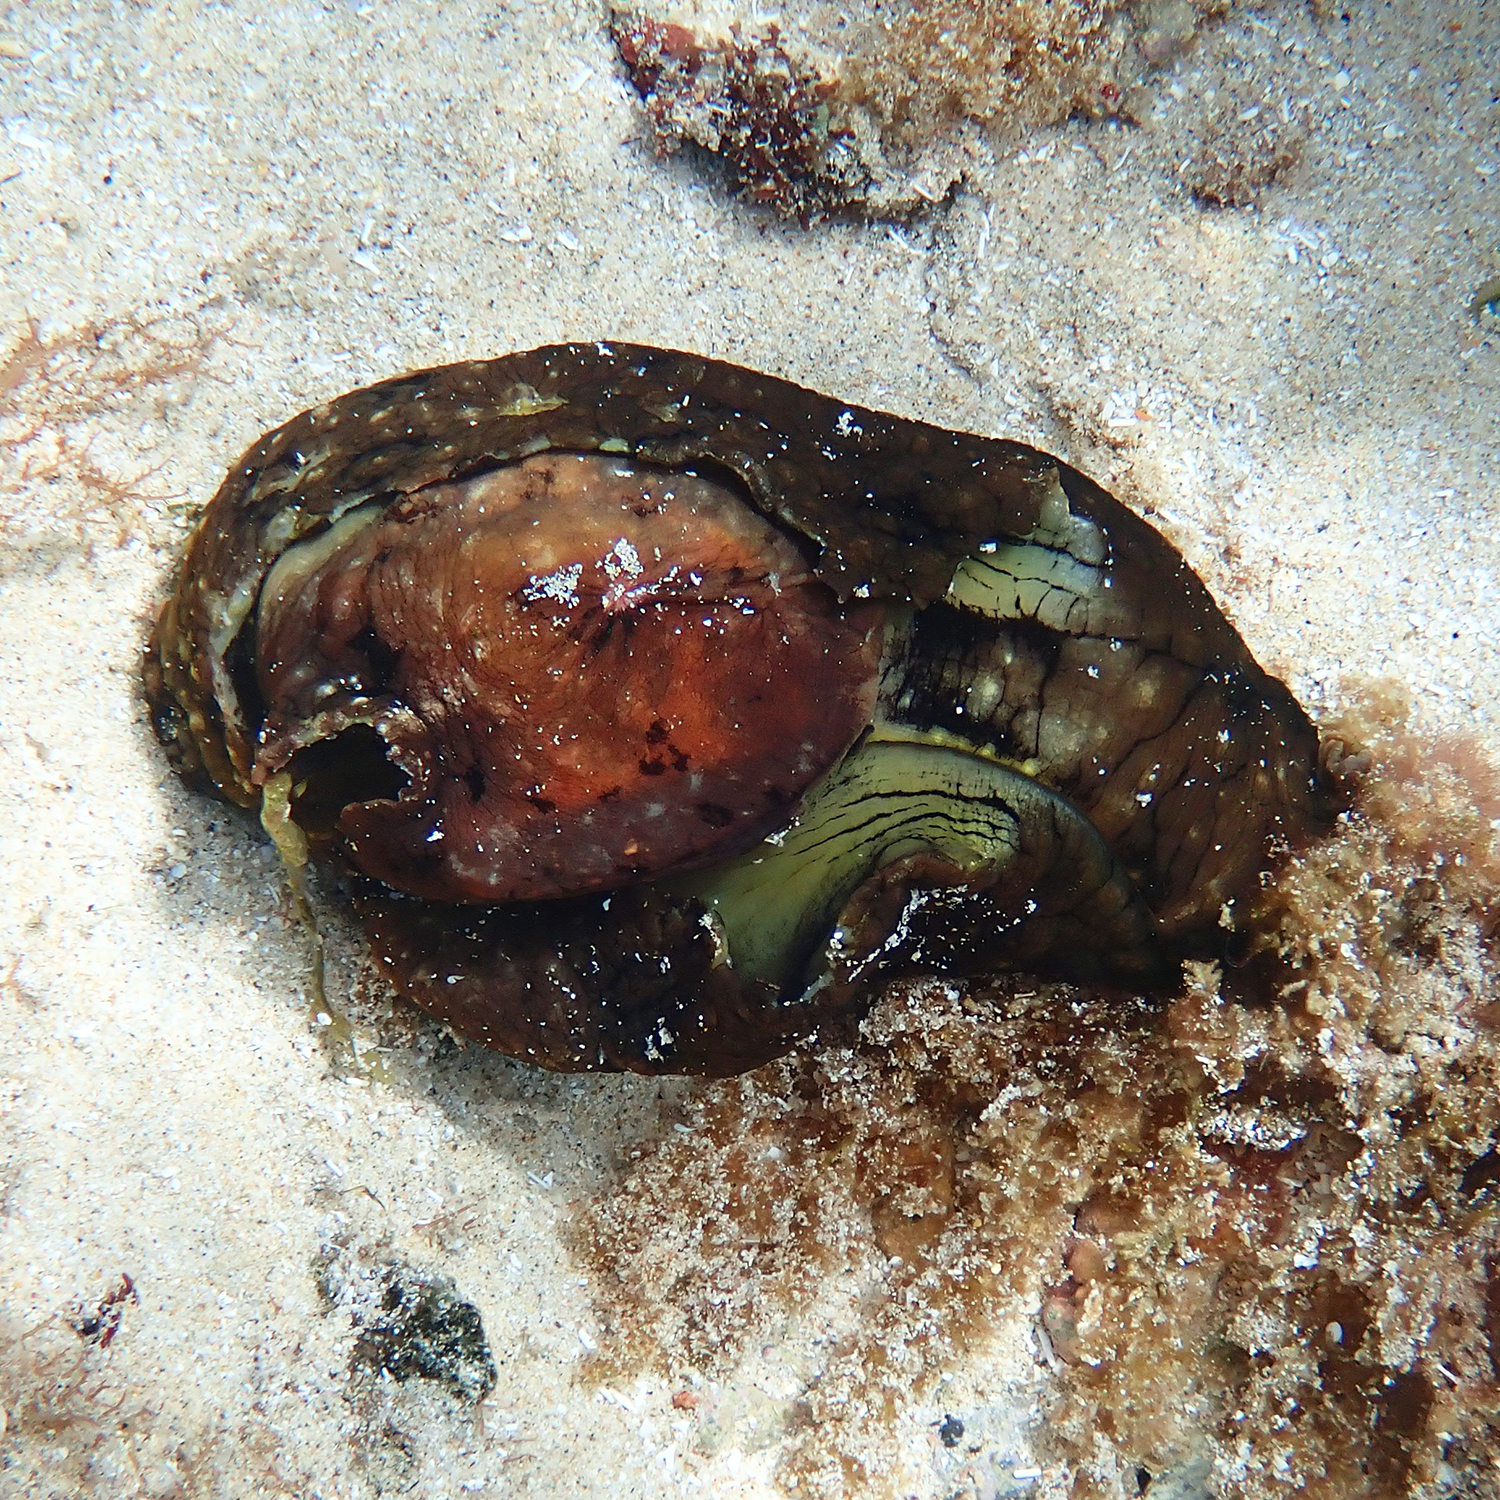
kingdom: Animalia
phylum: Mollusca
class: Gastropoda
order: Aplysiida
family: Aplysiidae
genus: Aplysia
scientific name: Aplysia argus
